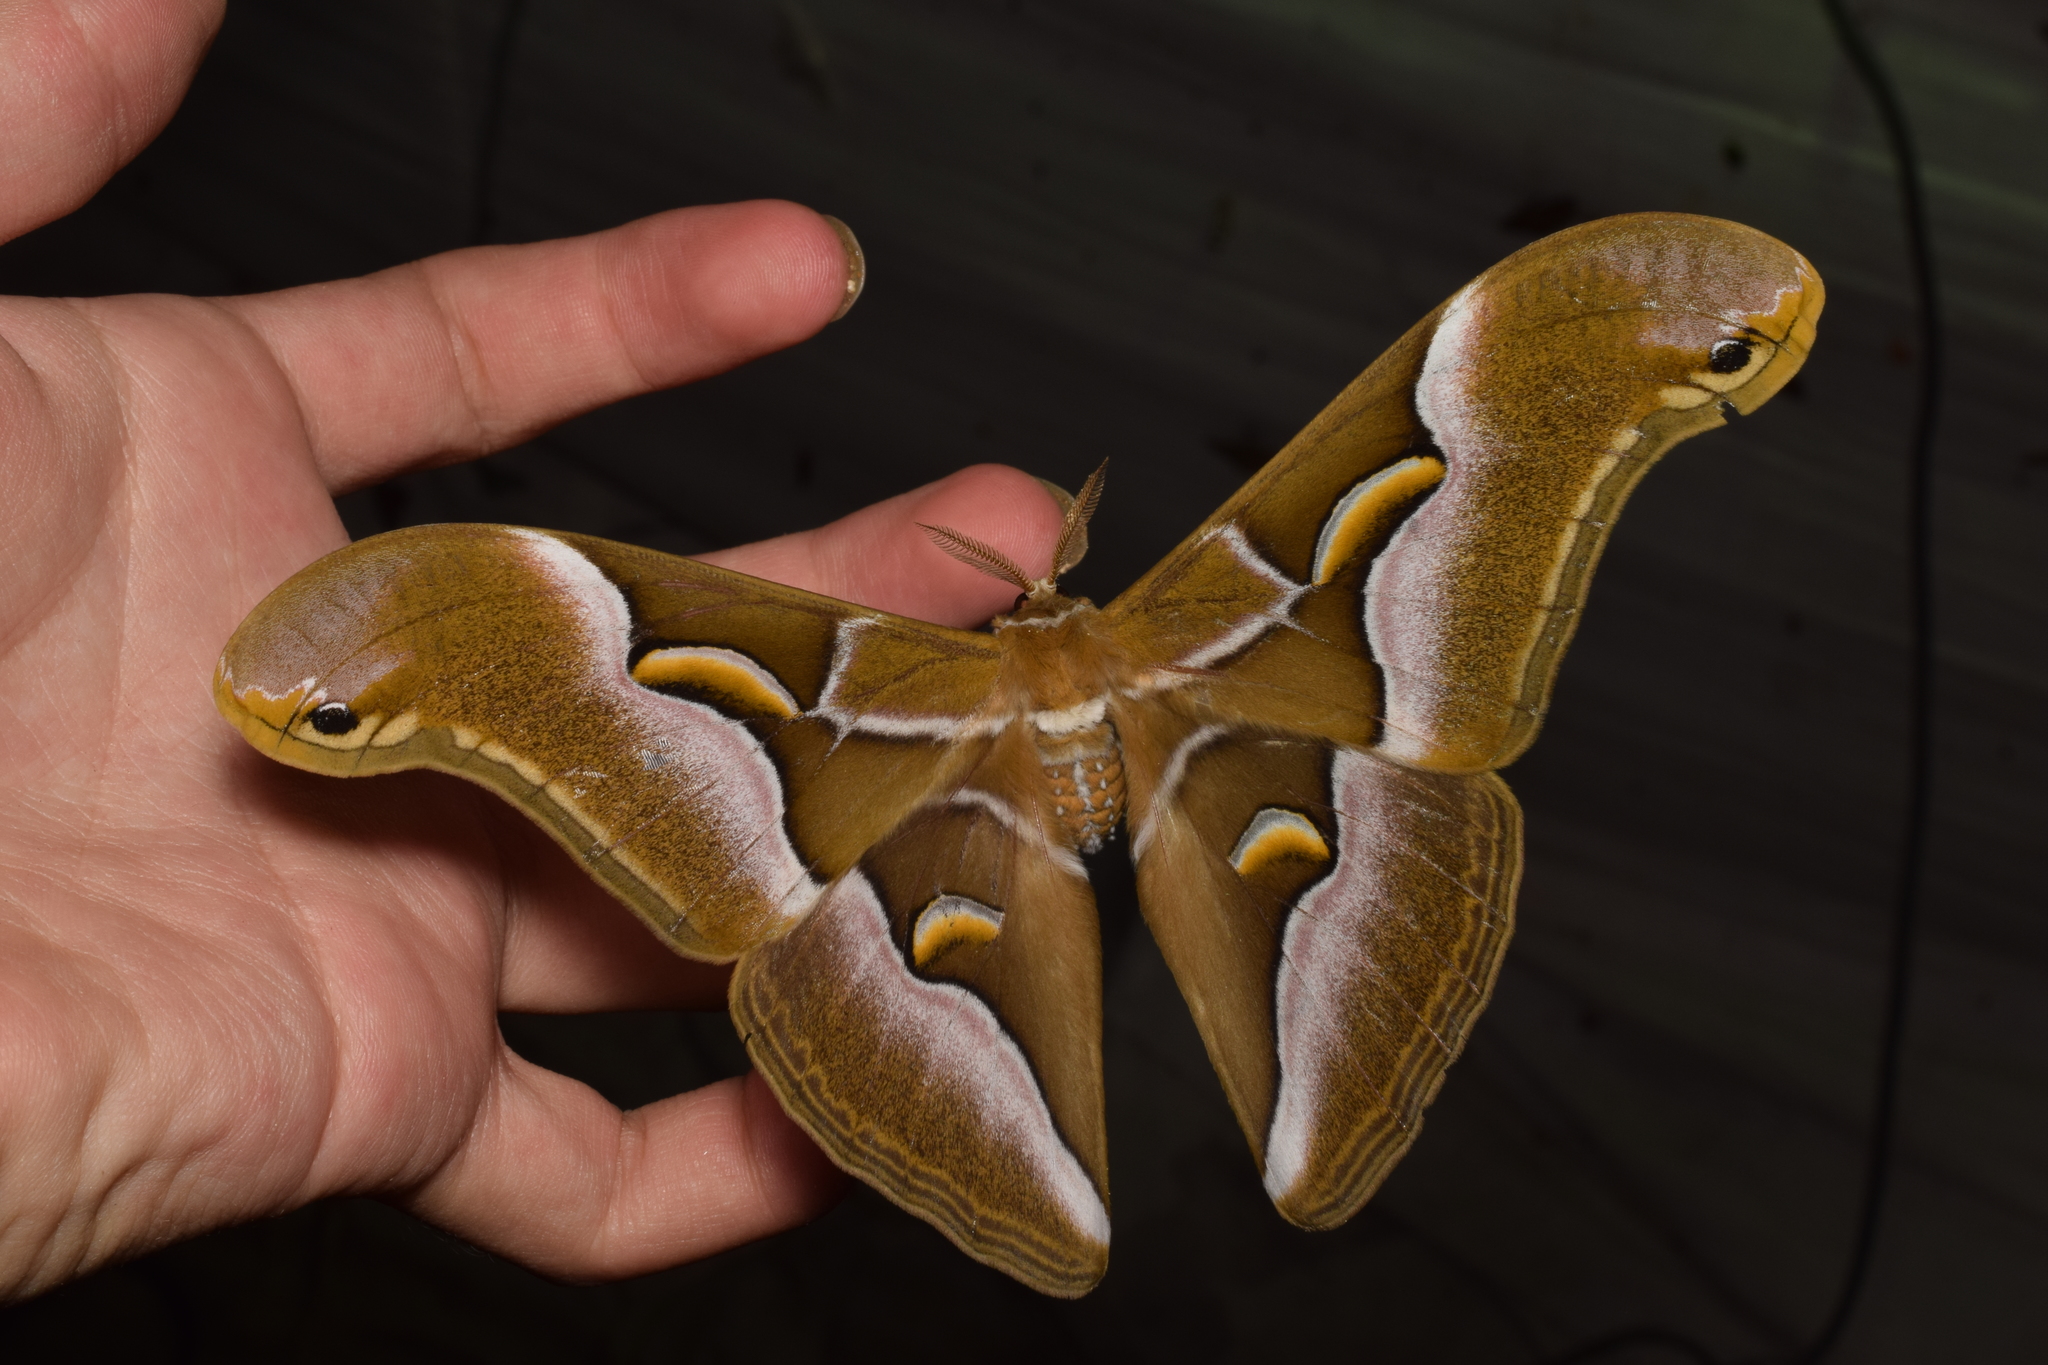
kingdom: Animalia
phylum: Arthropoda
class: Insecta
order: Lepidoptera
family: Saturniidae
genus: Samia
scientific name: Samia cynthia
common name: Ailanthus silkmoth
